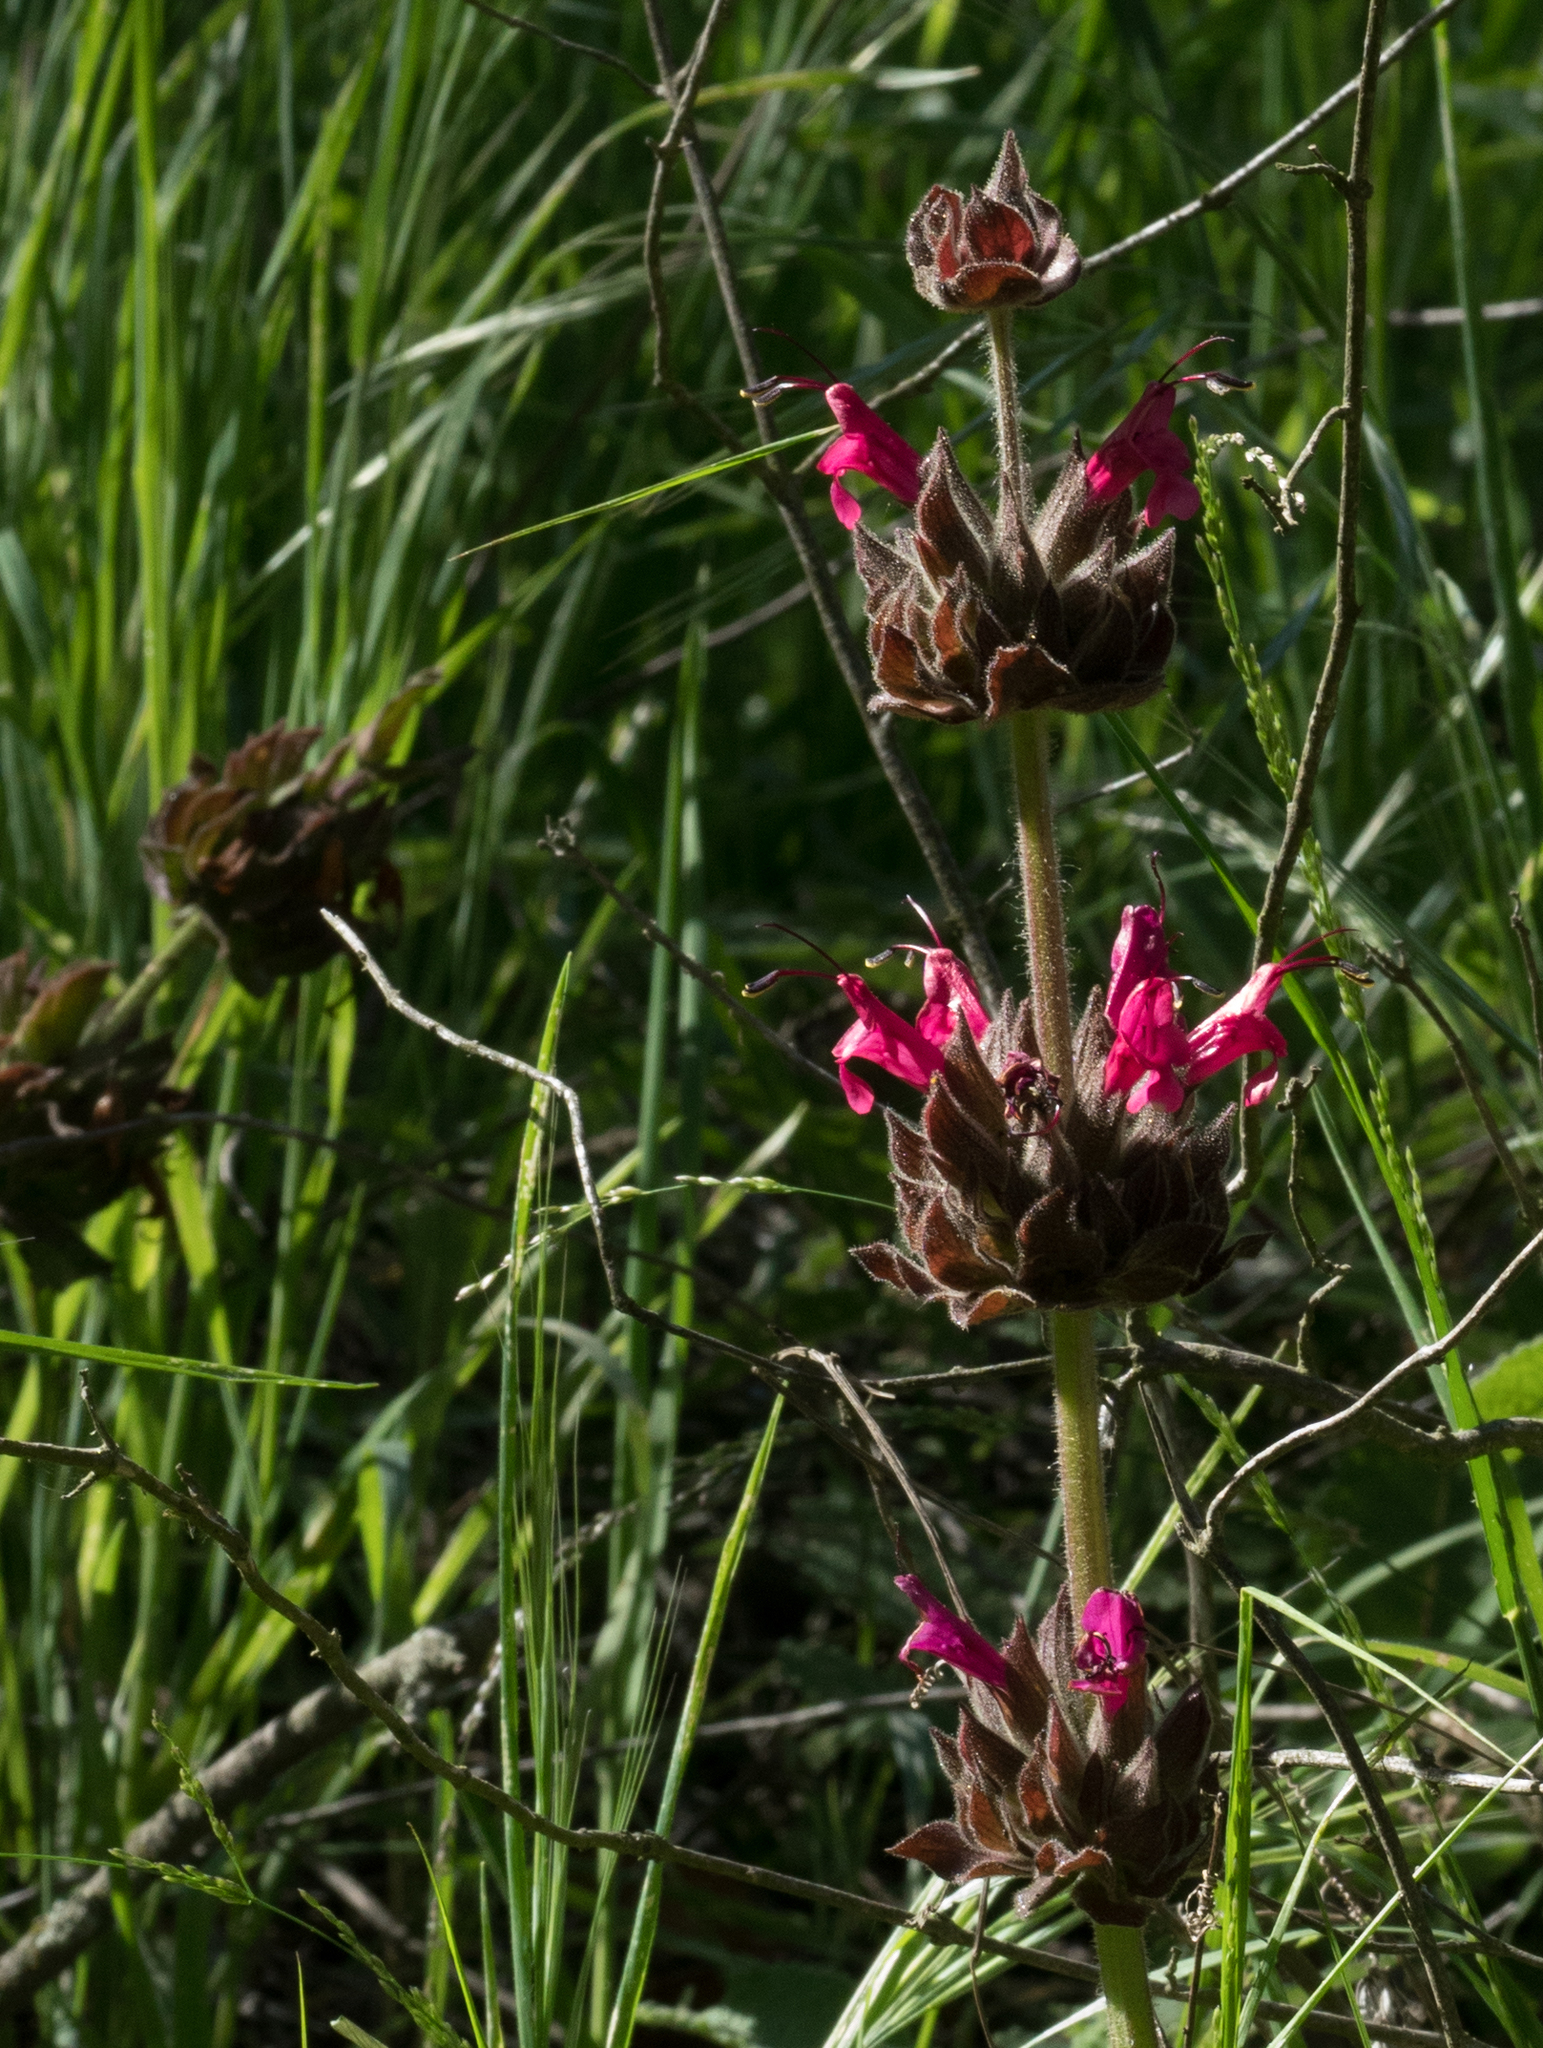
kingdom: Plantae
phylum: Tracheophyta
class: Magnoliopsida
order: Lamiales
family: Lamiaceae
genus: Salvia
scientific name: Salvia spathacea
